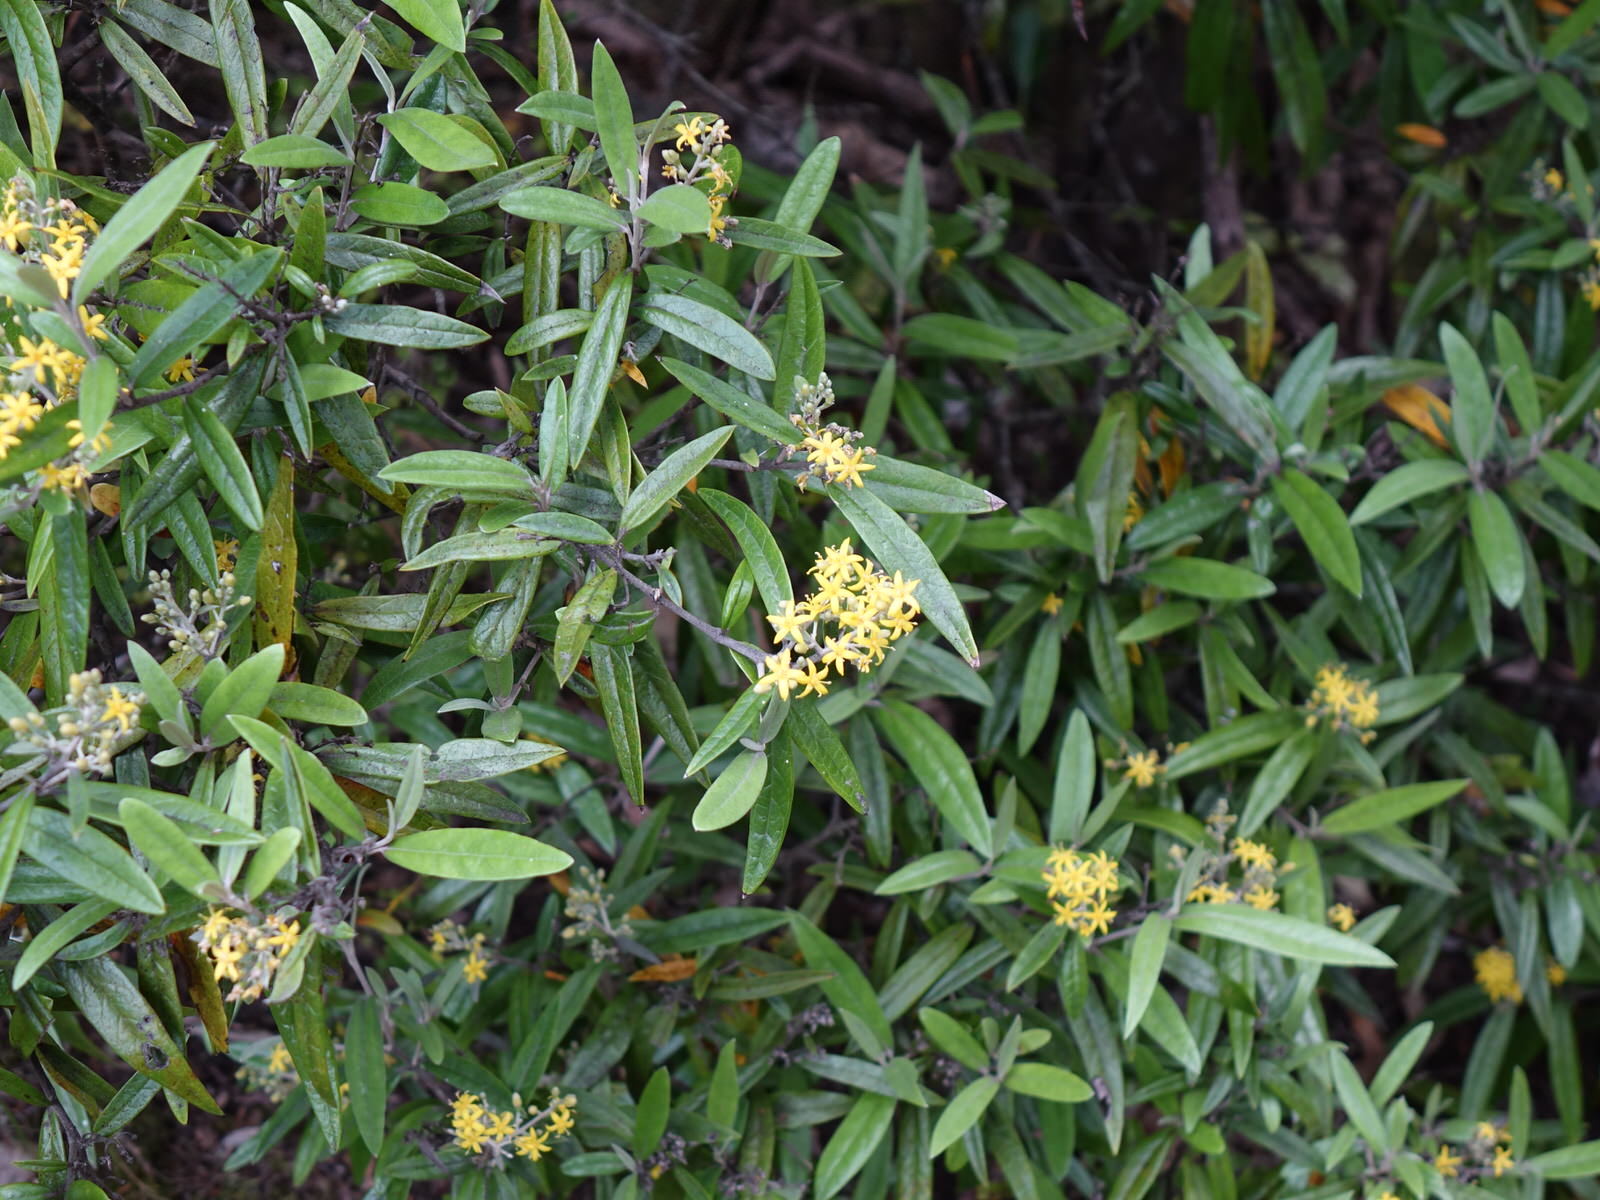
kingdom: Plantae
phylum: Tracheophyta
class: Magnoliopsida
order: Asterales
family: Argophyllaceae
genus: Corokia
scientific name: Corokia buddleioides
